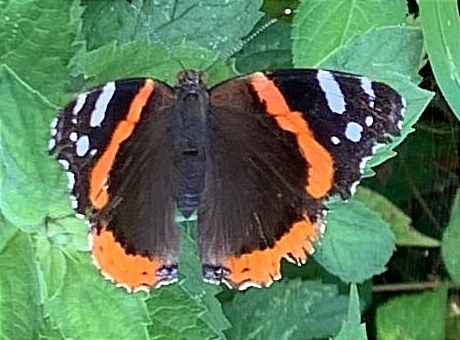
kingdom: Animalia
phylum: Arthropoda
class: Insecta
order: Lepidoptera
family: Nymphalidae
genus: Vanessa
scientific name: Vanessa atalanta
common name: Red admiral
